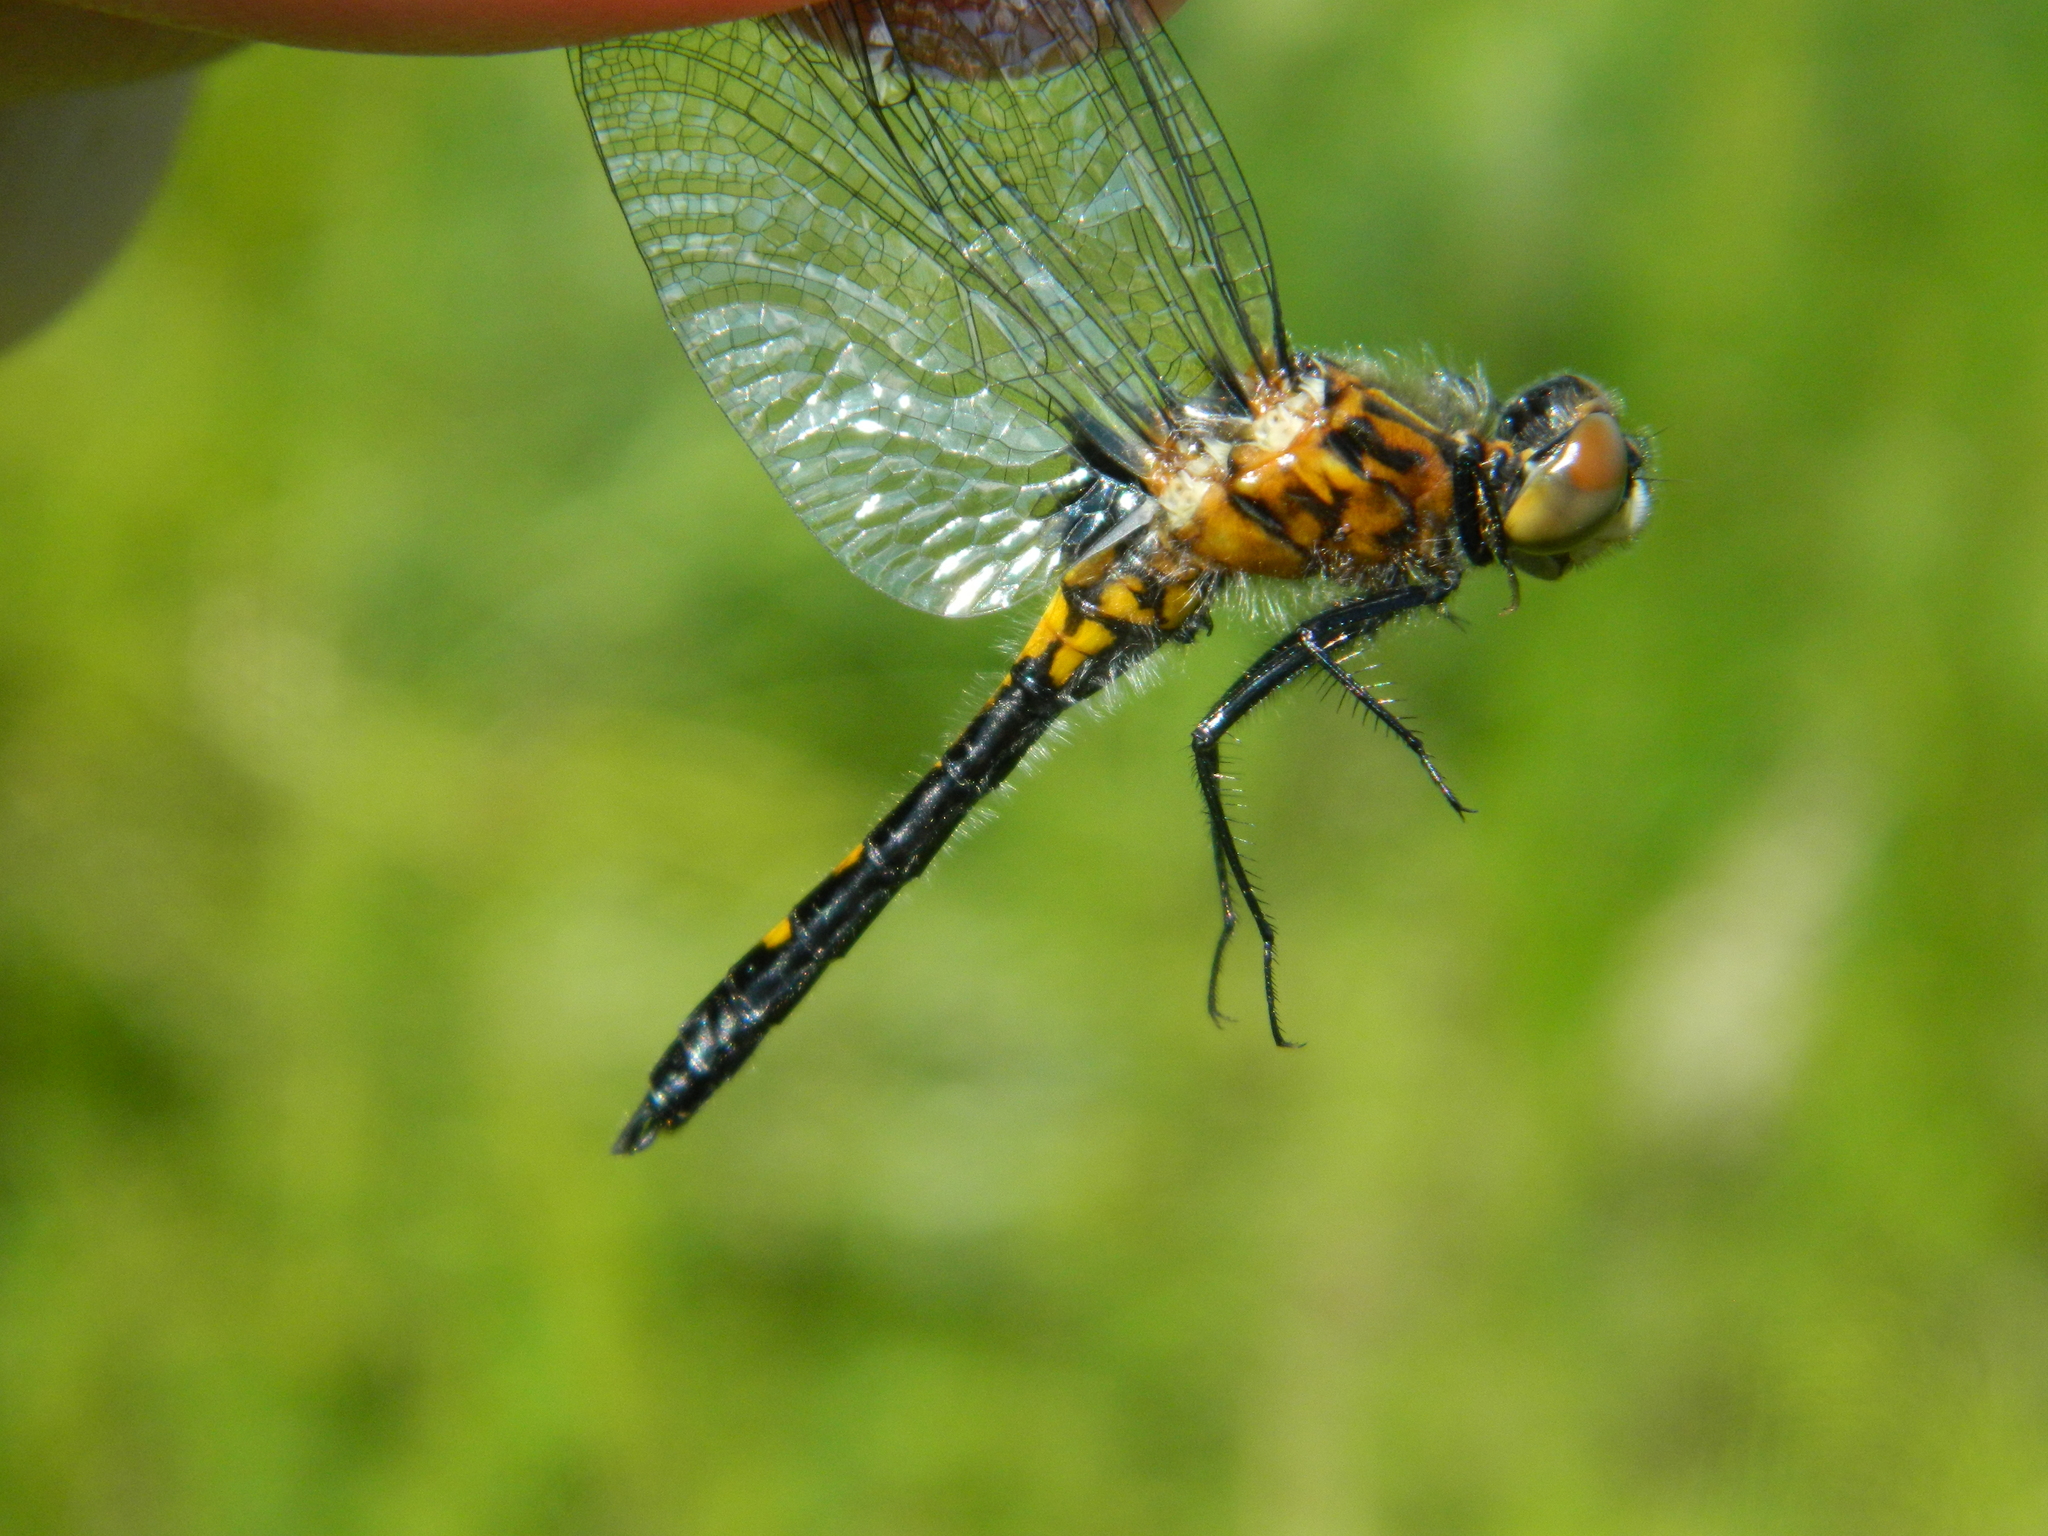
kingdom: Animalia
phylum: Arthropoda
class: Insecta
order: Odonata
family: Libellulidae
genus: Leucorrhinia
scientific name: Leucorrhinia intacta
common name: Dot-tailed whiteface
